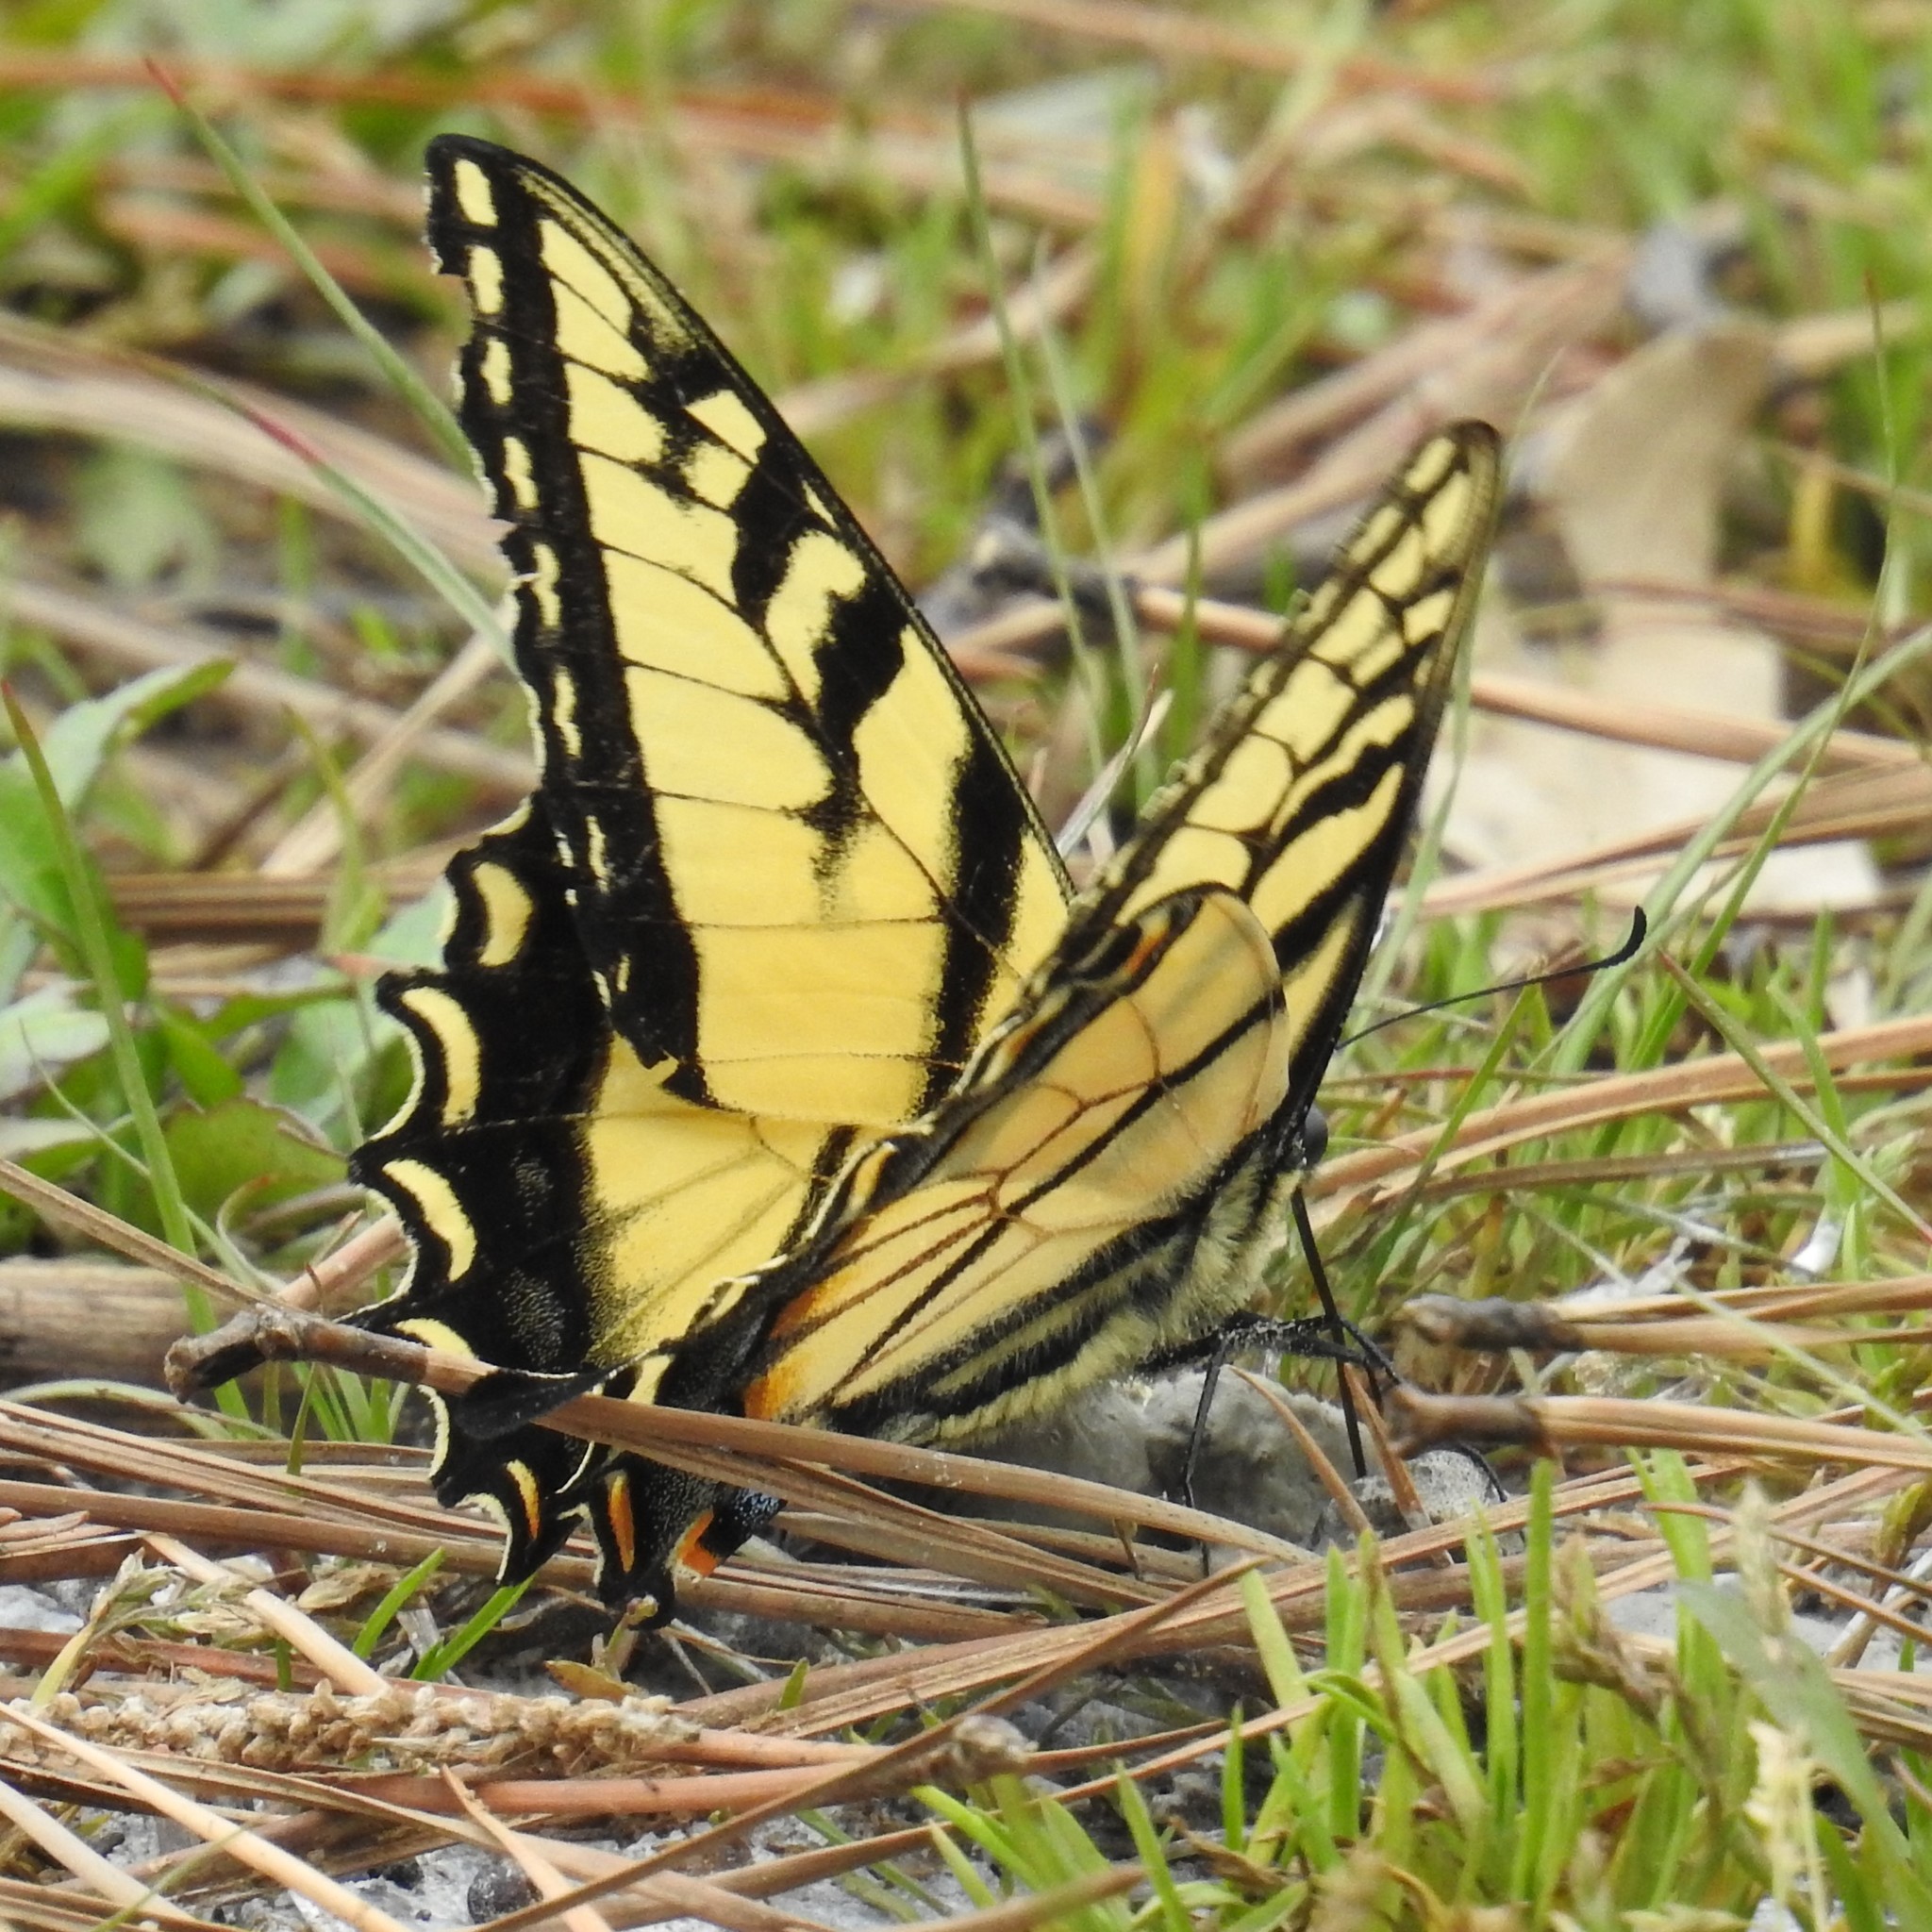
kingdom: Animalia
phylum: Arthropoda
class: Insecta
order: Lepidoptera
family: Papilionidae
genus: Papilio
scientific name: Papilio glaucus
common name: Tiger swallowtail
